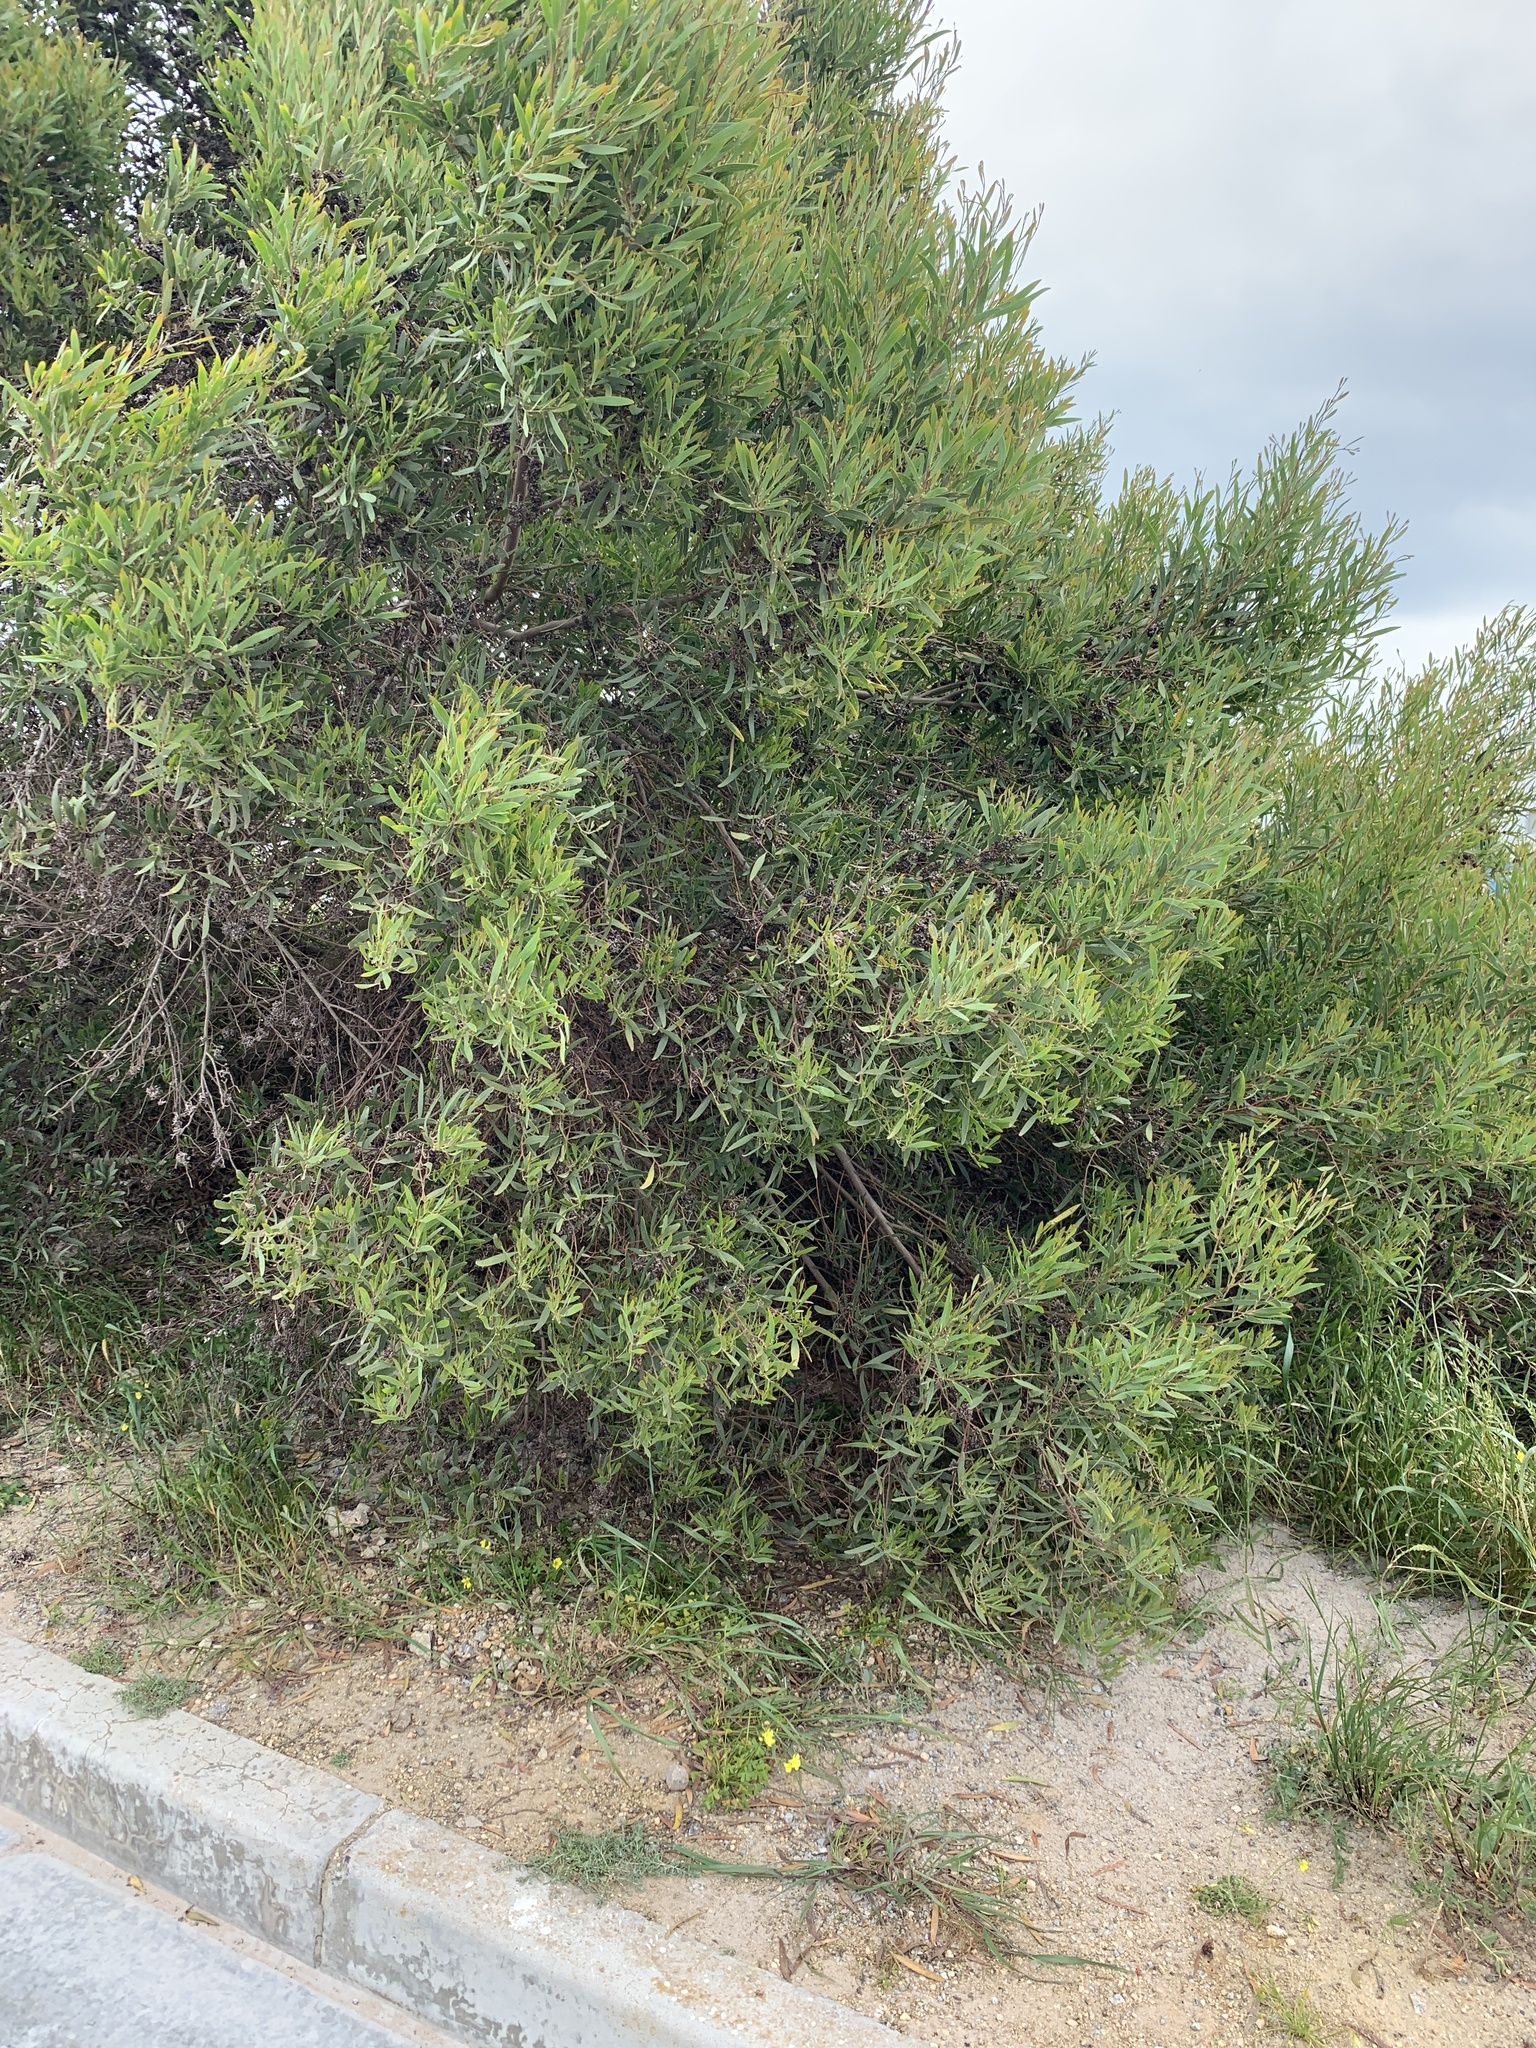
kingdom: Plantae
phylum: Tracheophyta
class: Magnoliopsida
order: Fabales
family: Fabaceae
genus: Acacia
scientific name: Acacia cyclops
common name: Coastal wattle
